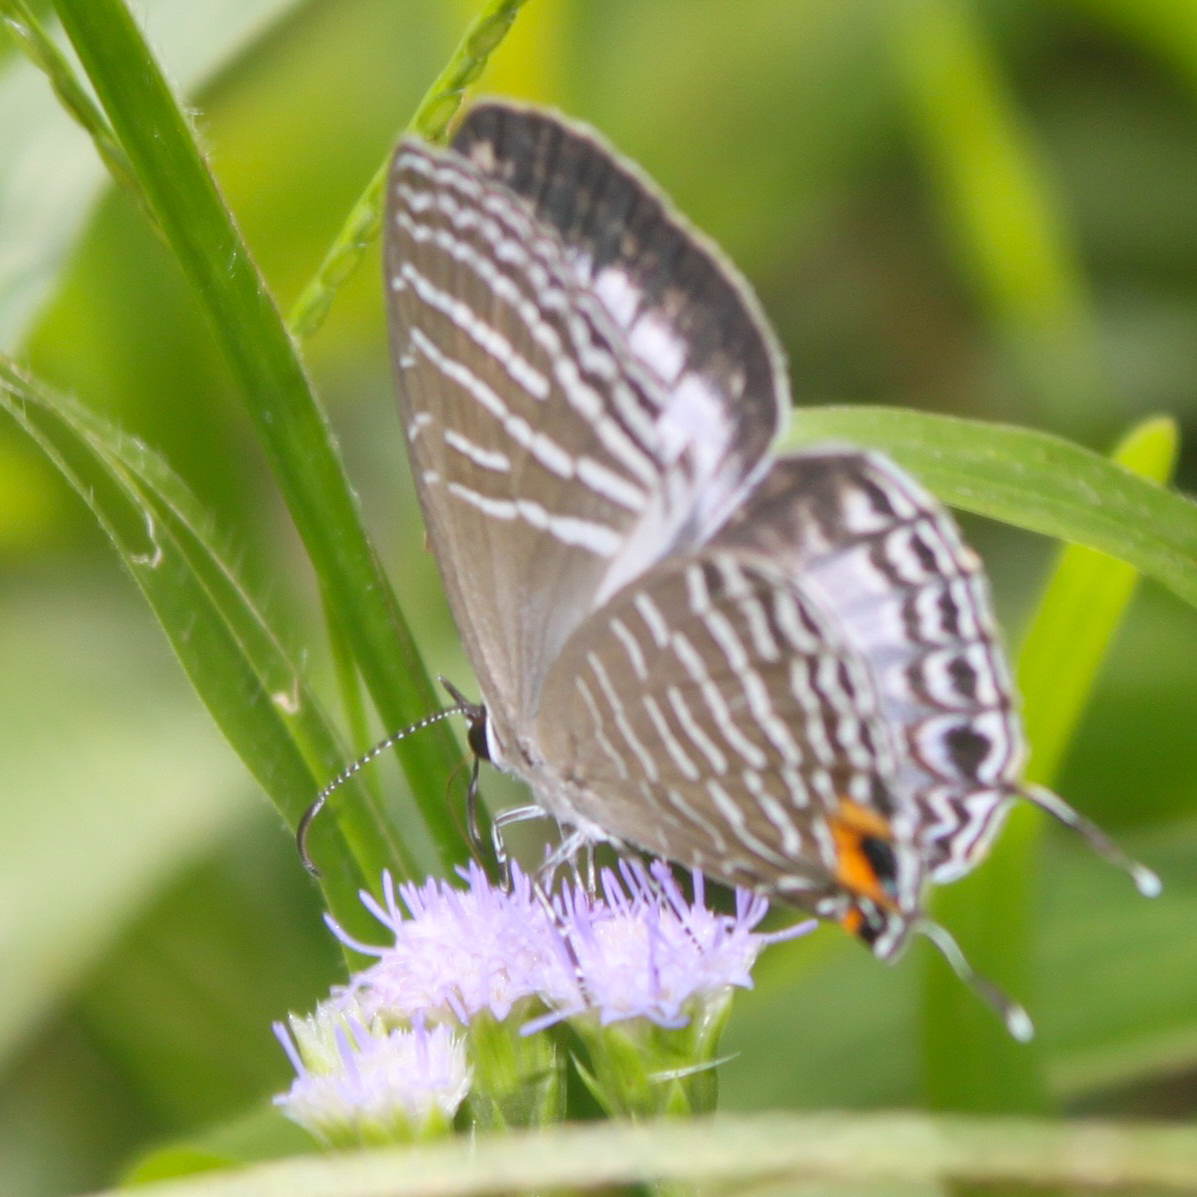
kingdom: Animalia
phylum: Arthropoda
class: Insecta
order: Lepidoptera
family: Lycaenidae
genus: Jamides
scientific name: Jamides pura
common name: White cerulean
